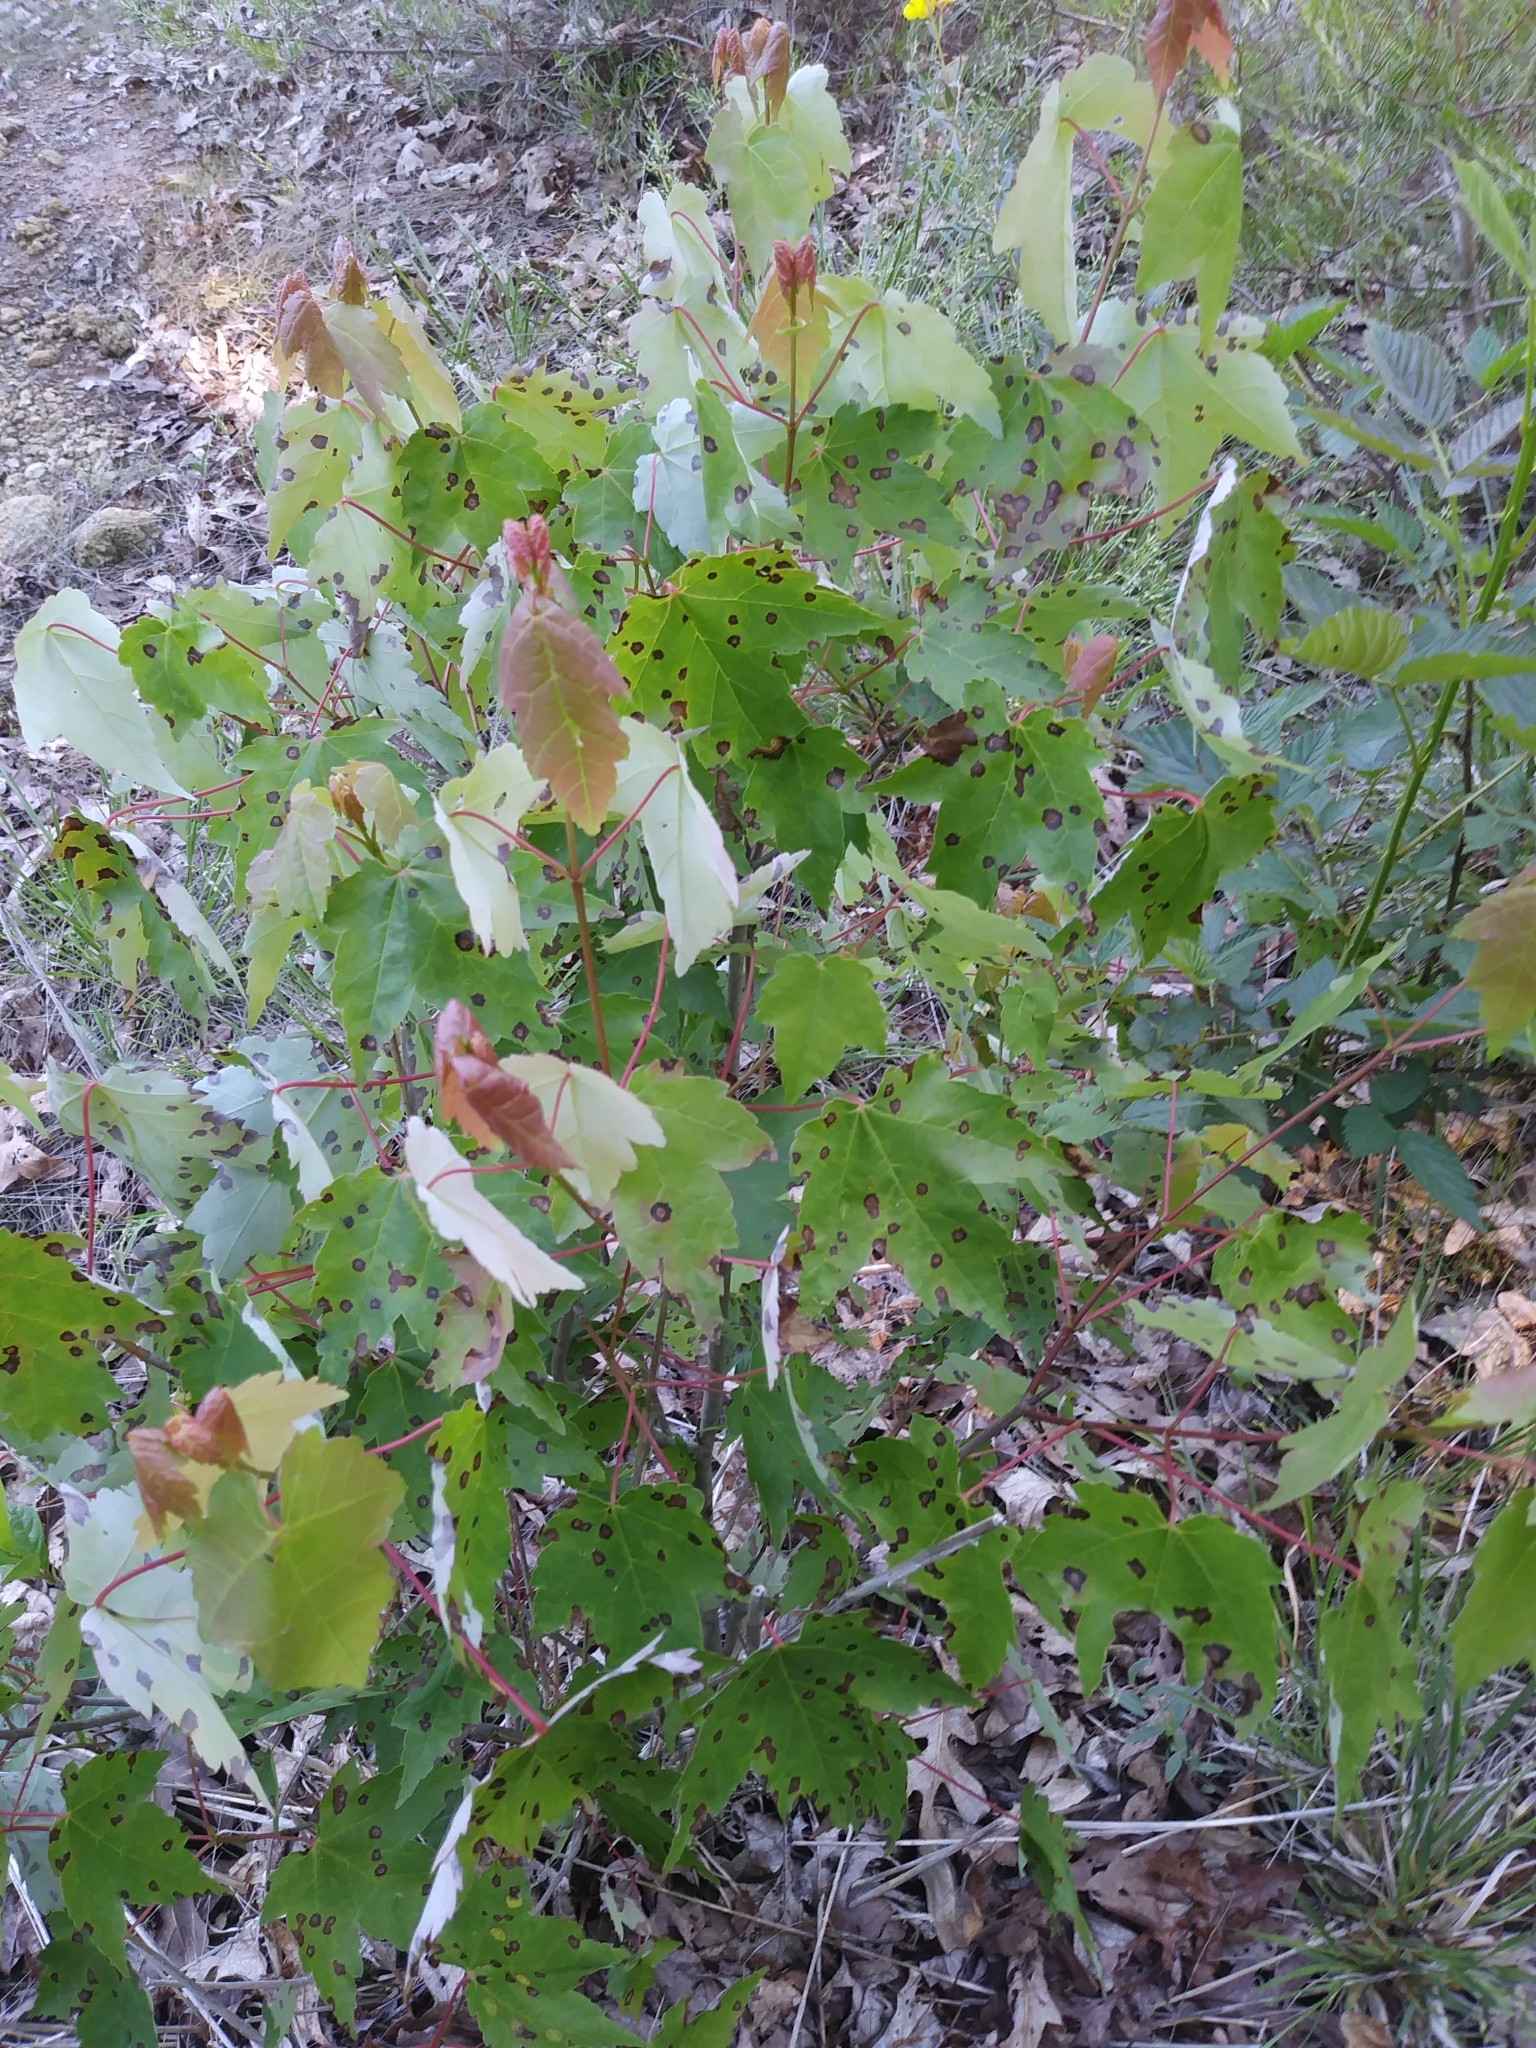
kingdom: Plantae
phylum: Tracheophyta
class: Magnoliopsida
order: Sapindales
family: Sapindaceae
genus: Acer
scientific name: Acer rubrum
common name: Red maple
